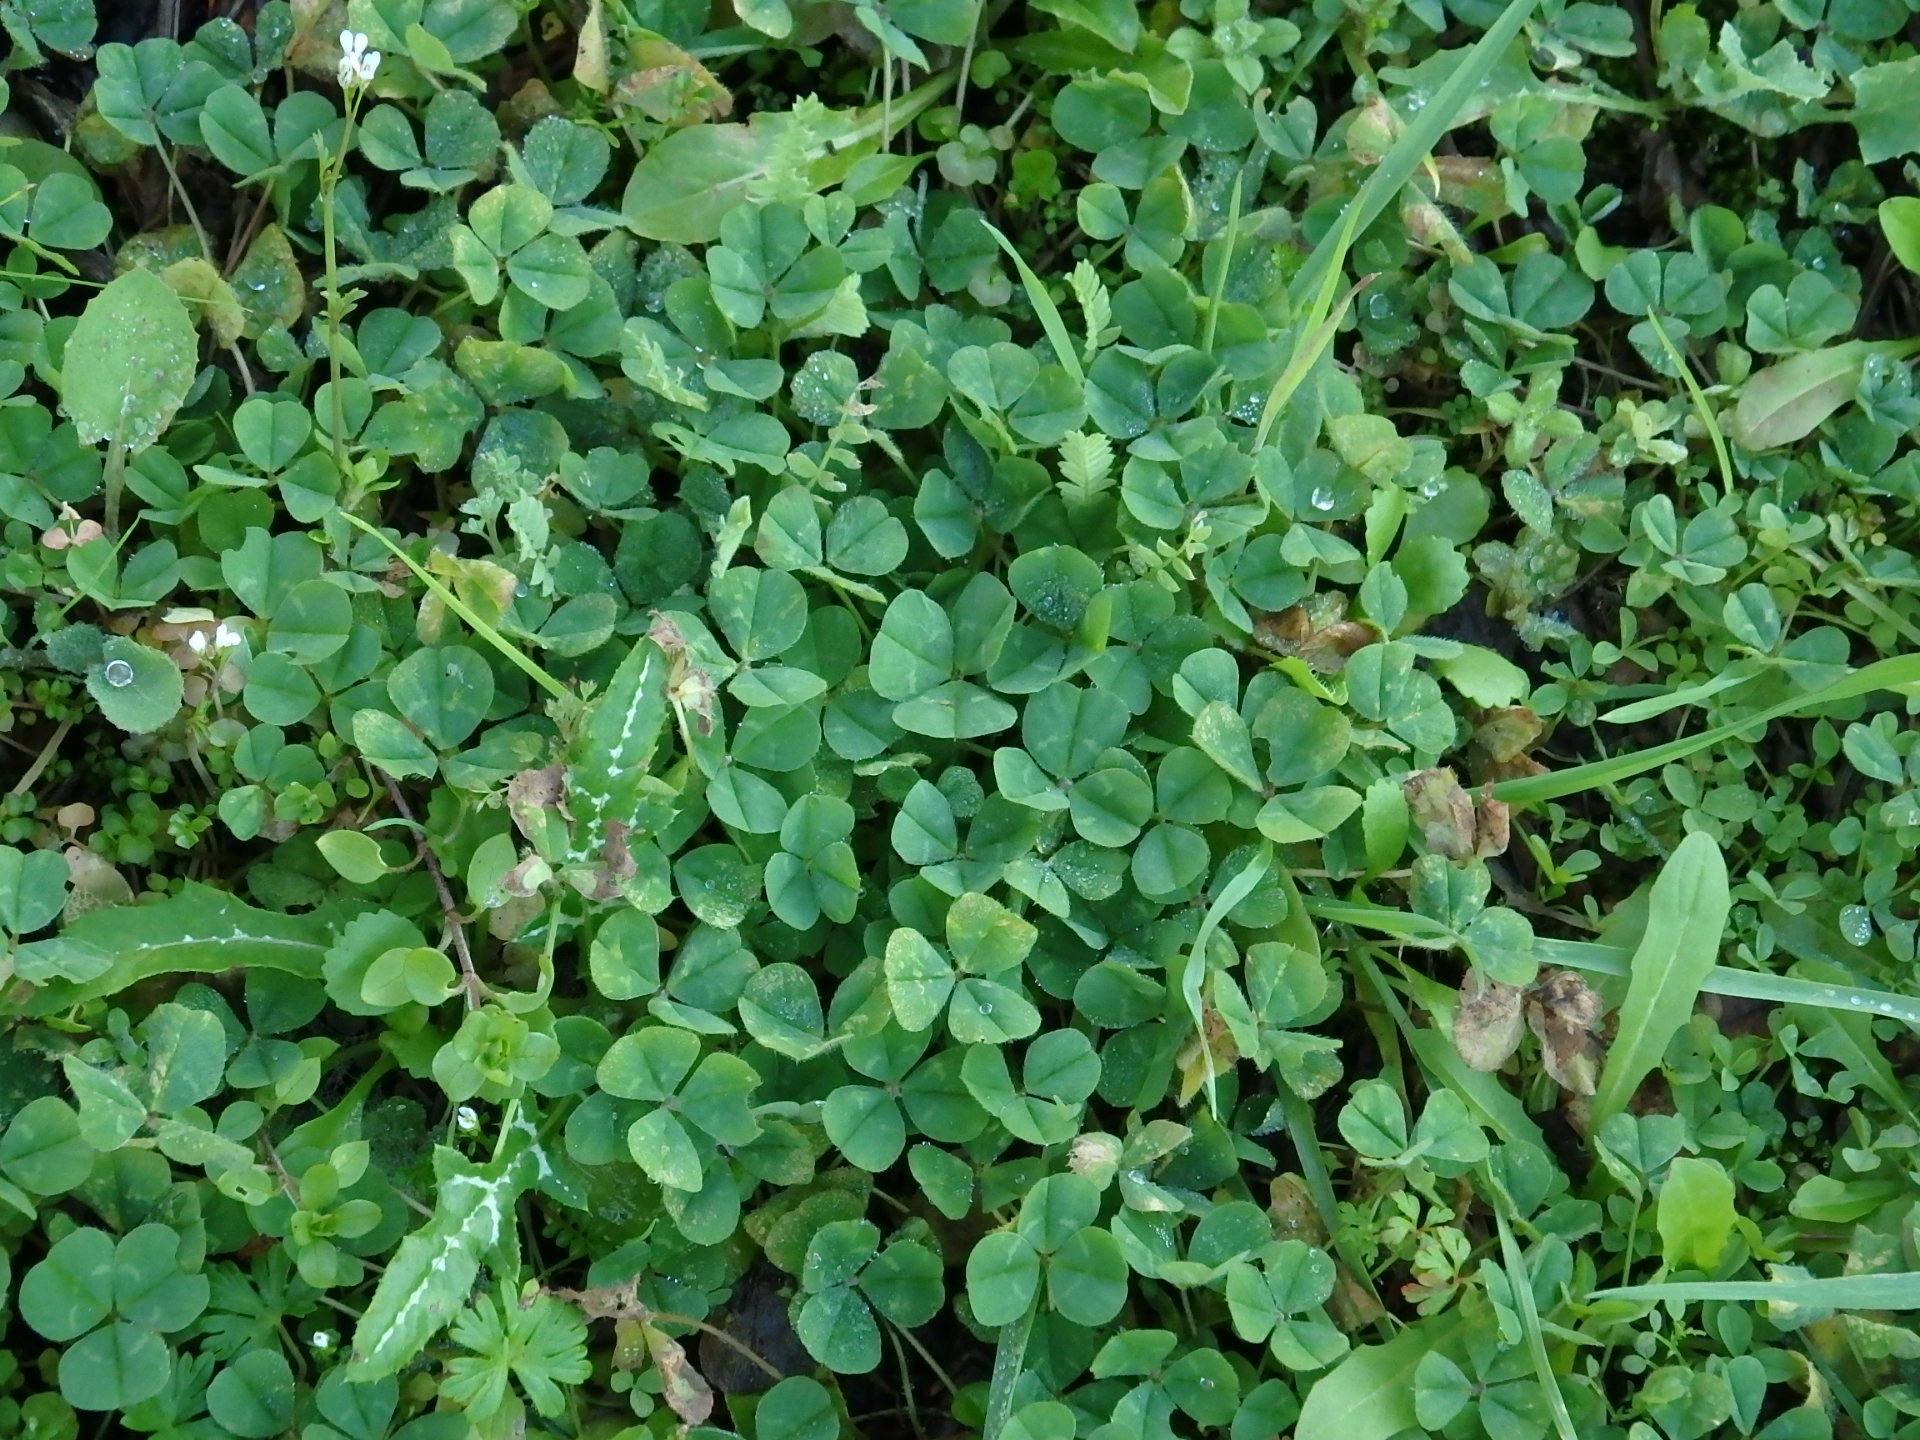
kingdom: Plantae
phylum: Tracheophyta
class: Magnoliopsida
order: Fabales
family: Fabaceae
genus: Trifolium
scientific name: Trifolium repens
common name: White clover
